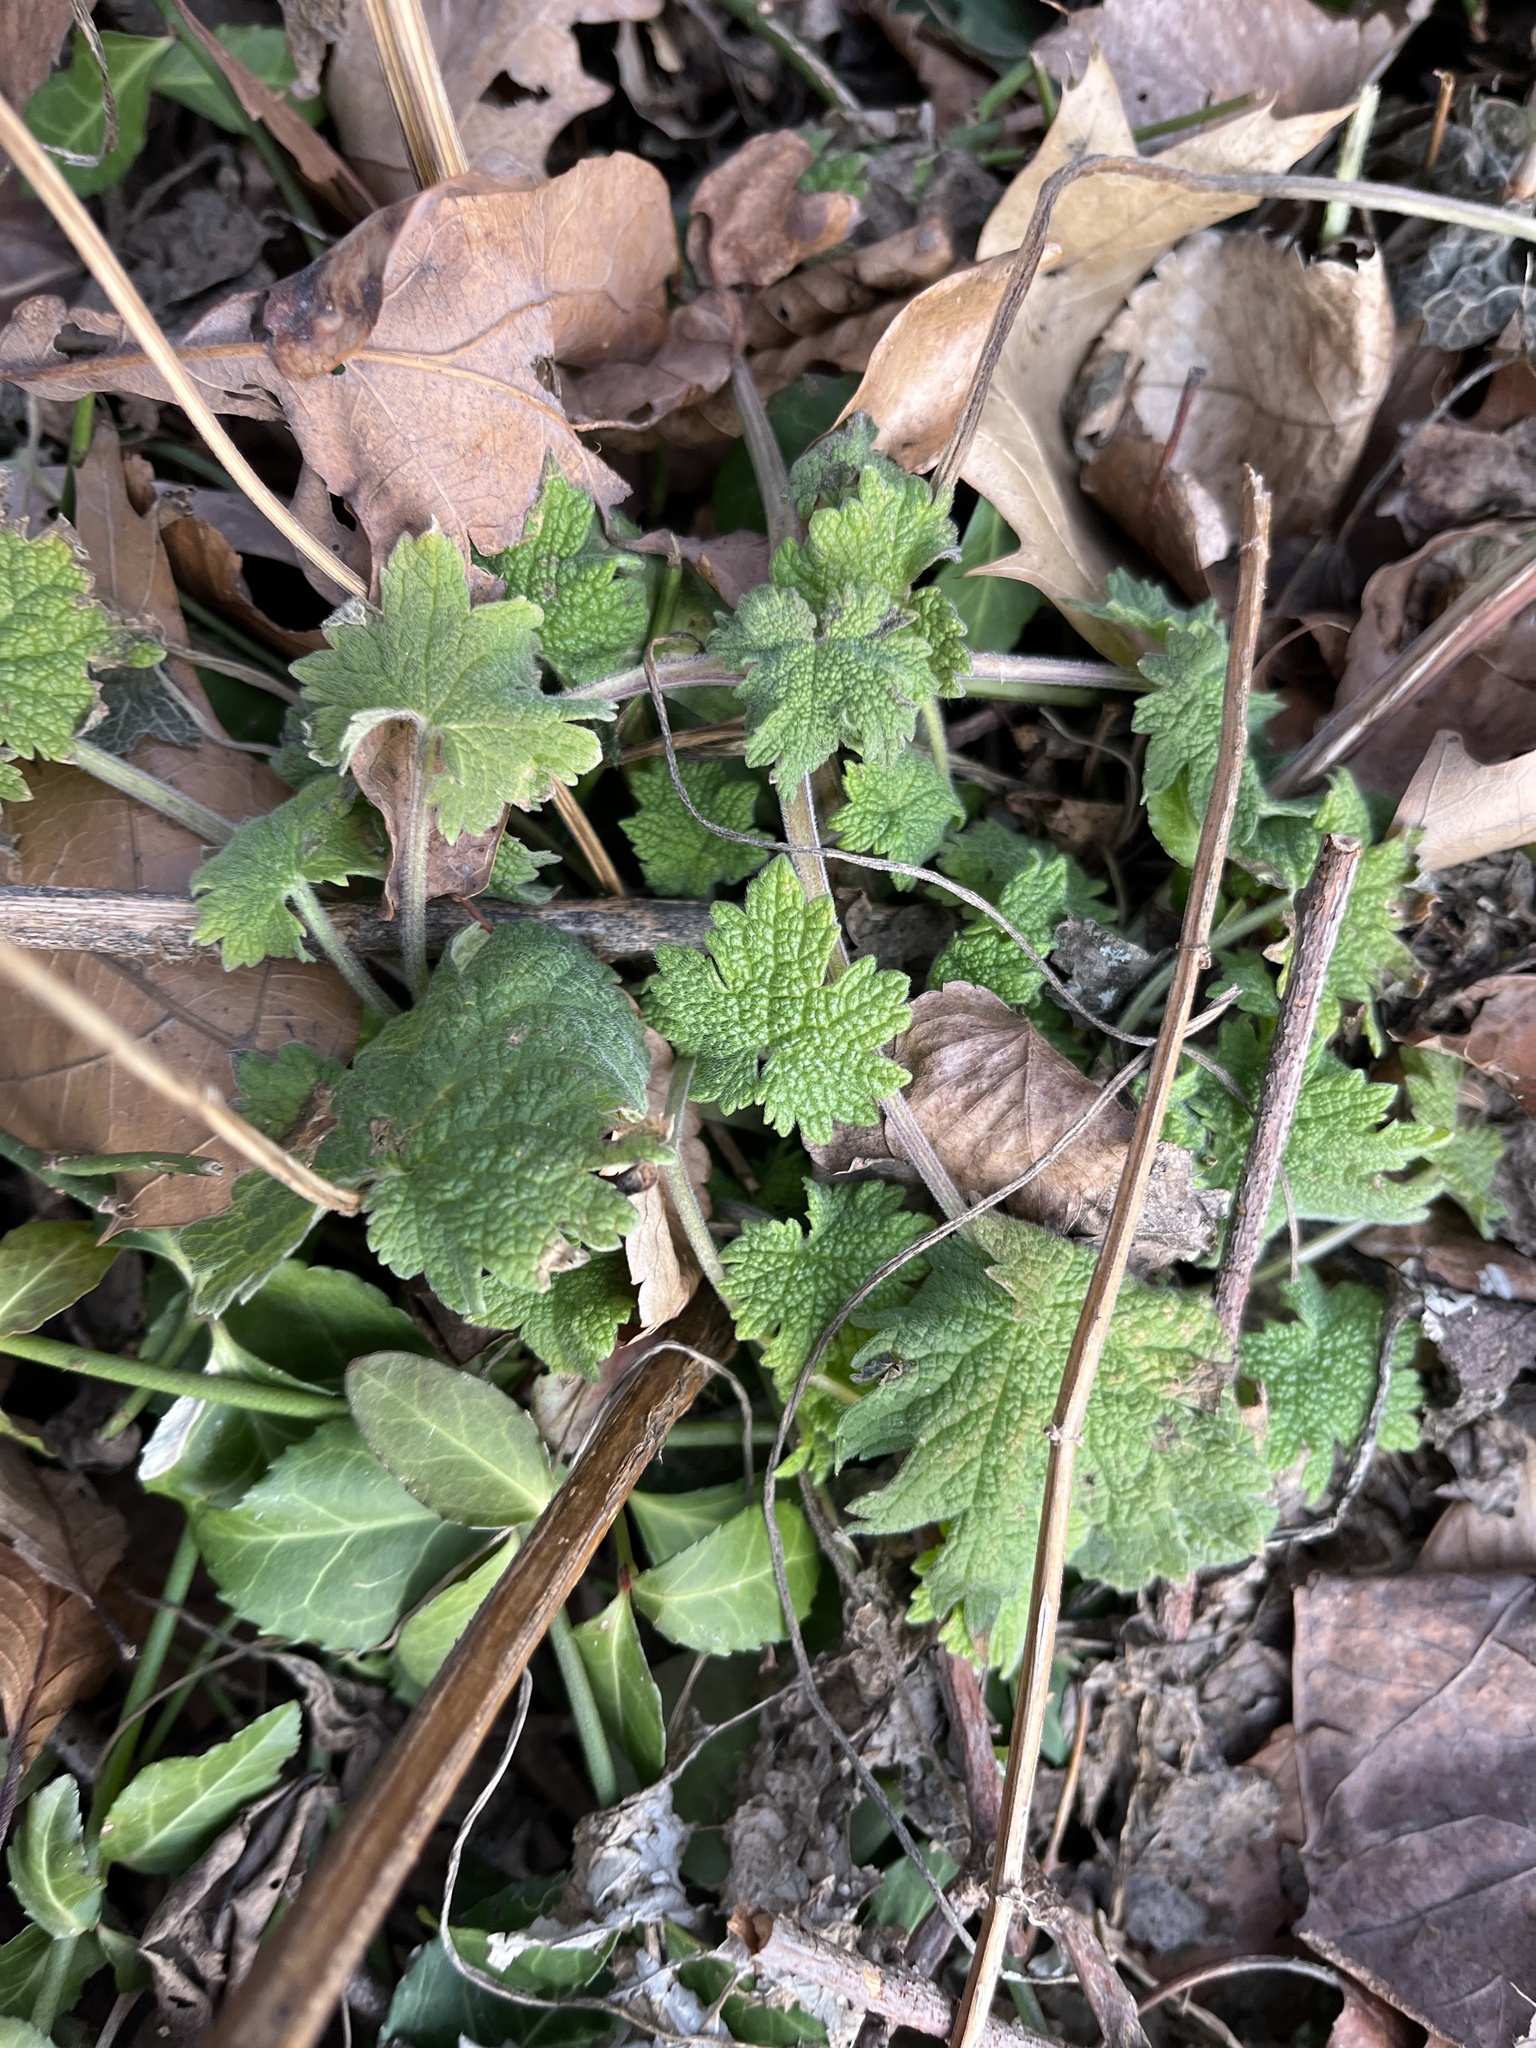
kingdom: Plantae
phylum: Tracheophyta
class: Magnoliopsida
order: Lamiales
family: Lamiaceae
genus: Leonurus
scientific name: Leonurus cardiaca
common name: Motherwort
